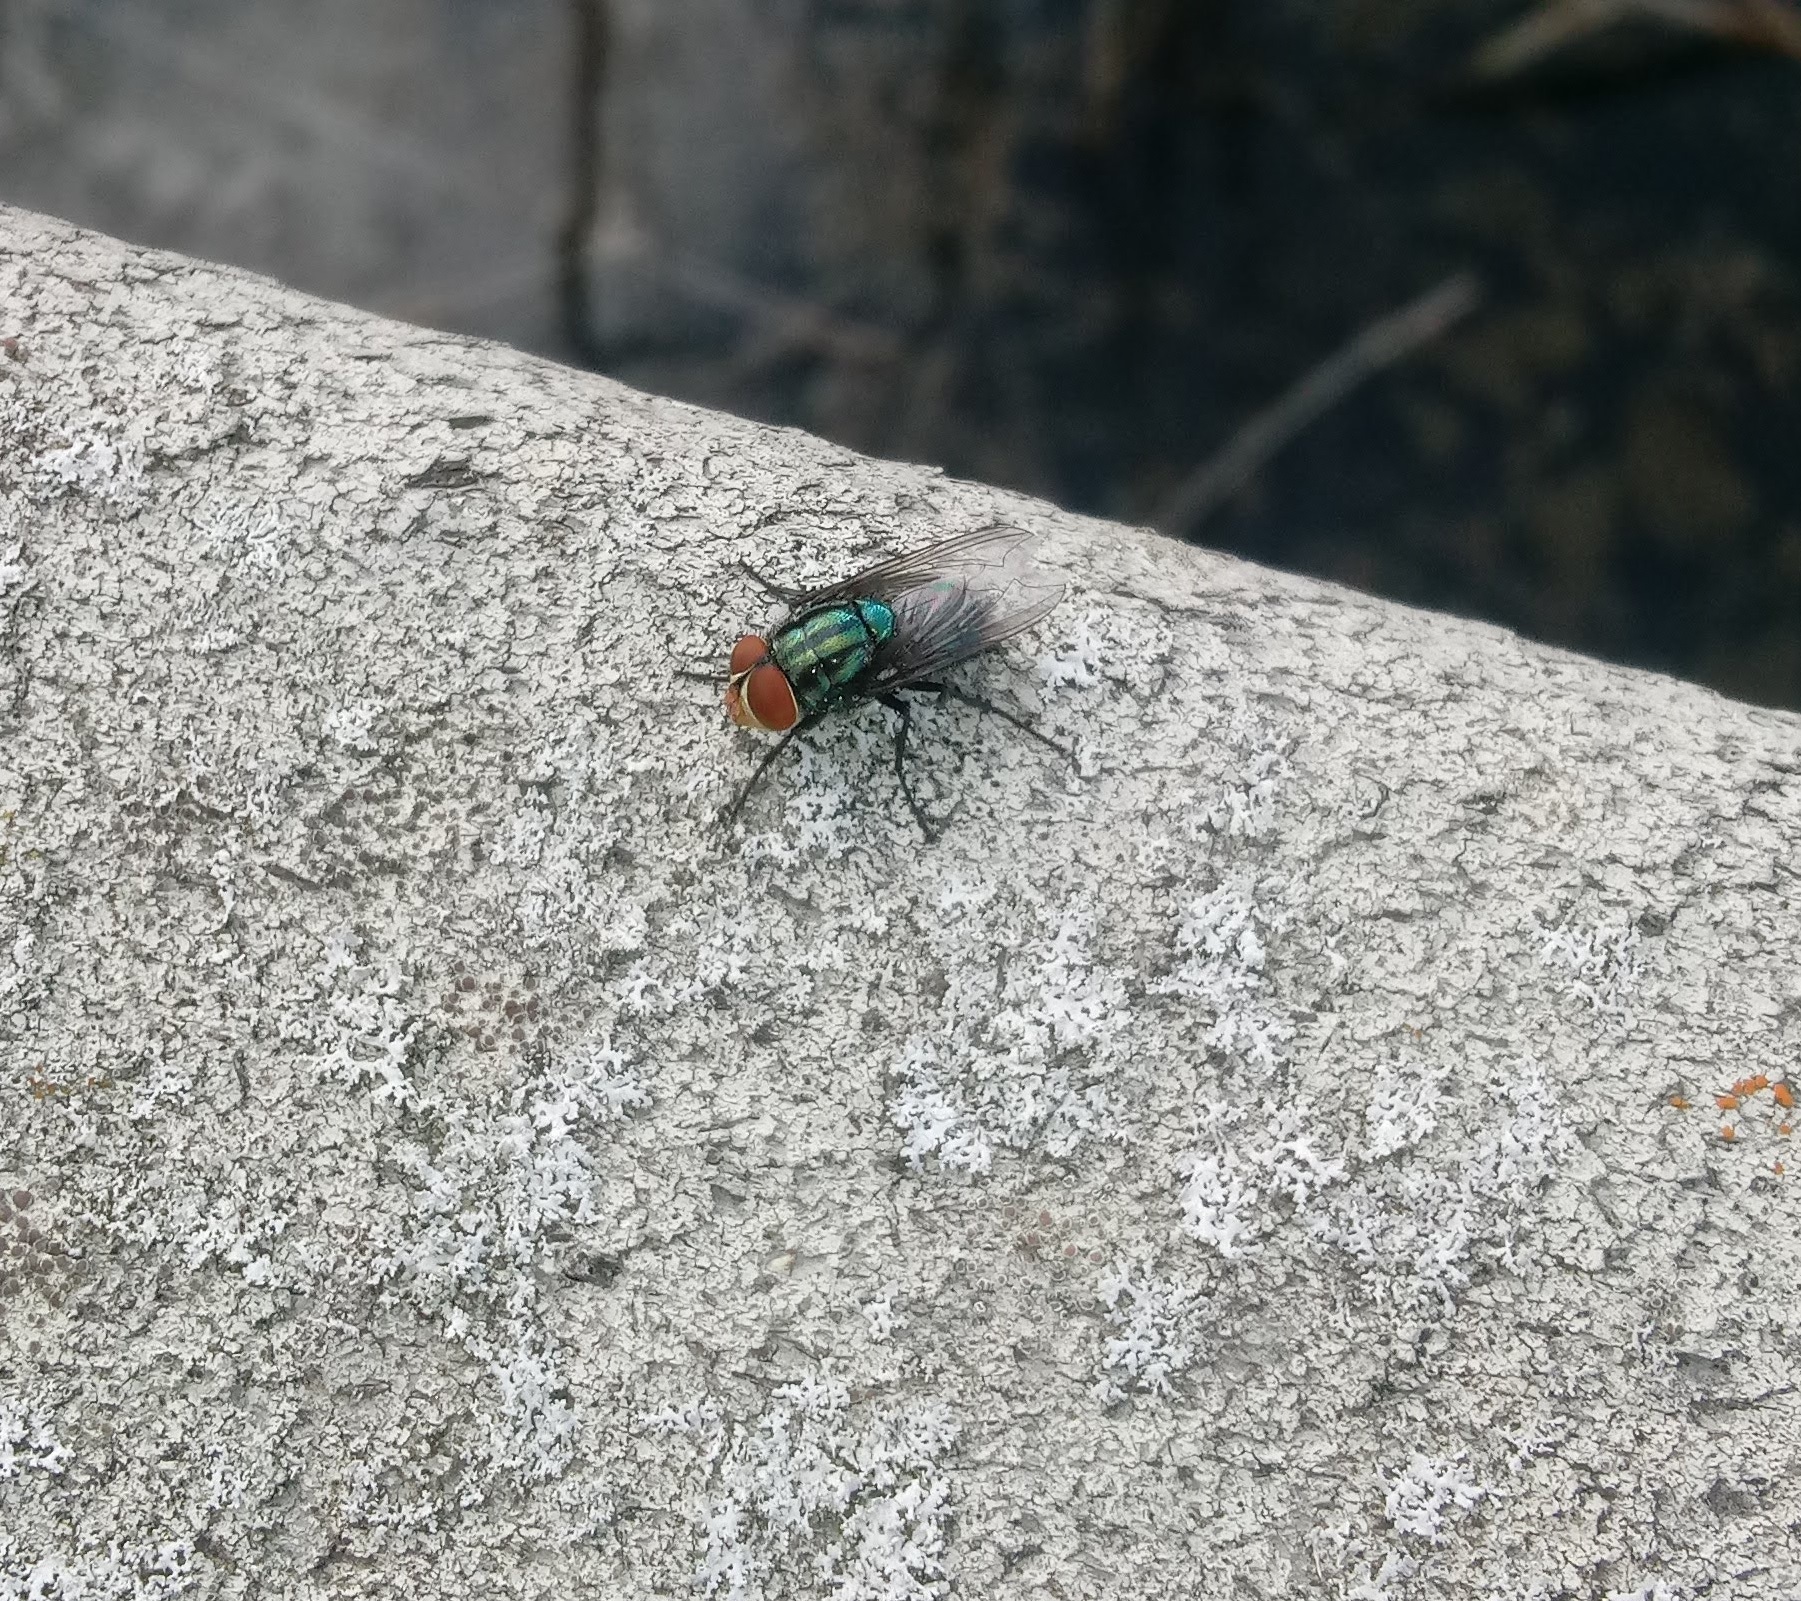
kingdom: Animalia
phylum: Arthropoda
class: Insecta
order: Diptera
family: Calliphoridae
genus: Cochliomyia
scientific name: Cochliomyia macellaria
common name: Secondary screwworm
